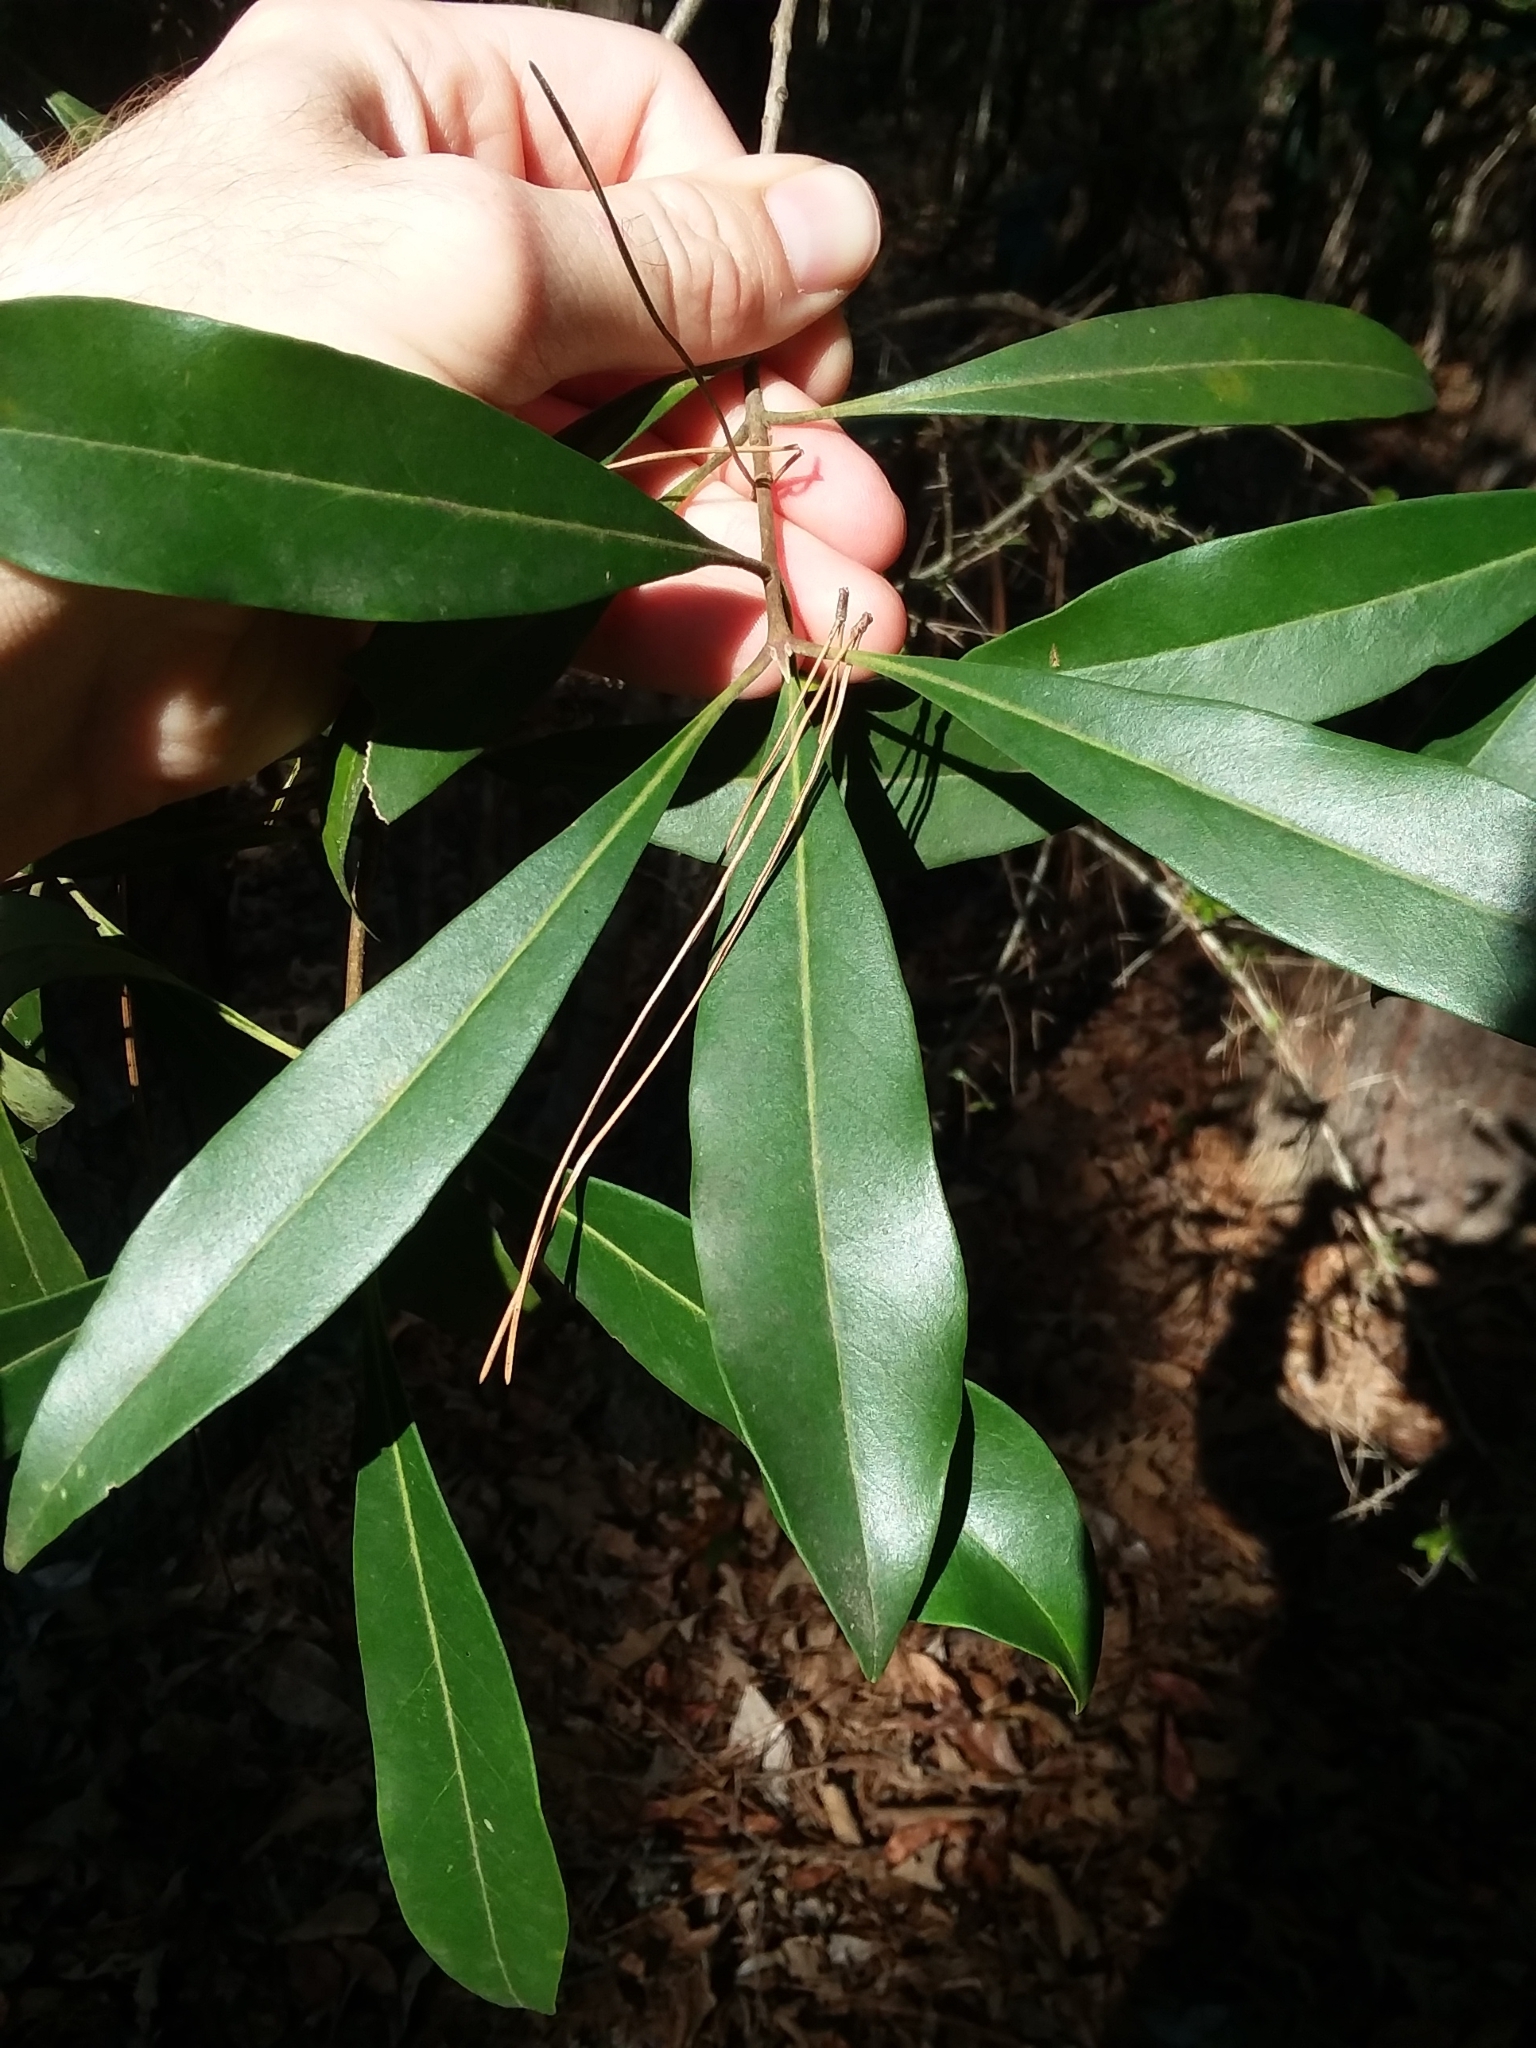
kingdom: Plantae
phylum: Tracheophyta
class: Magnoliopsida
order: Lamiales
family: Oleaceae
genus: Cartrema
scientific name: Cartrema americana
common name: Devilwood
